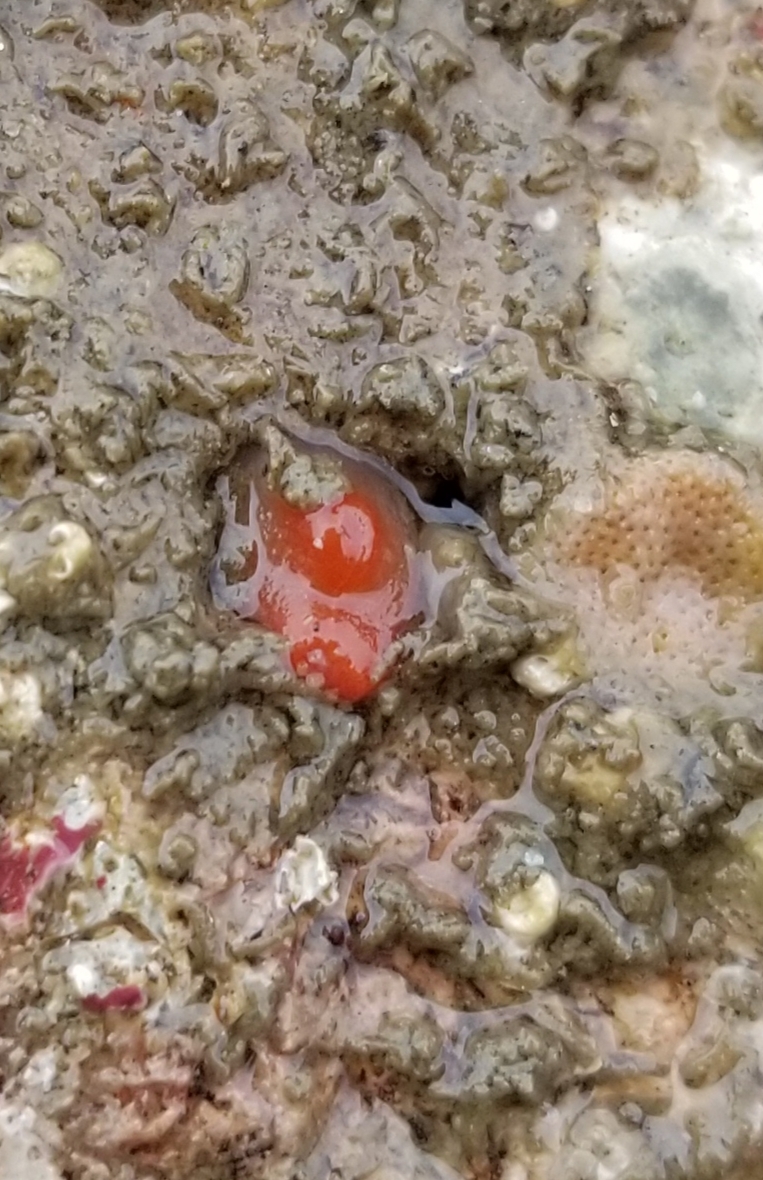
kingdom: Animalia
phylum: Mollusca
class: Bivalvia
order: Adapedonta
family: Hiatellidae
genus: Hiatella
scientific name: Hiatella arctica
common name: Arctic hiatella
